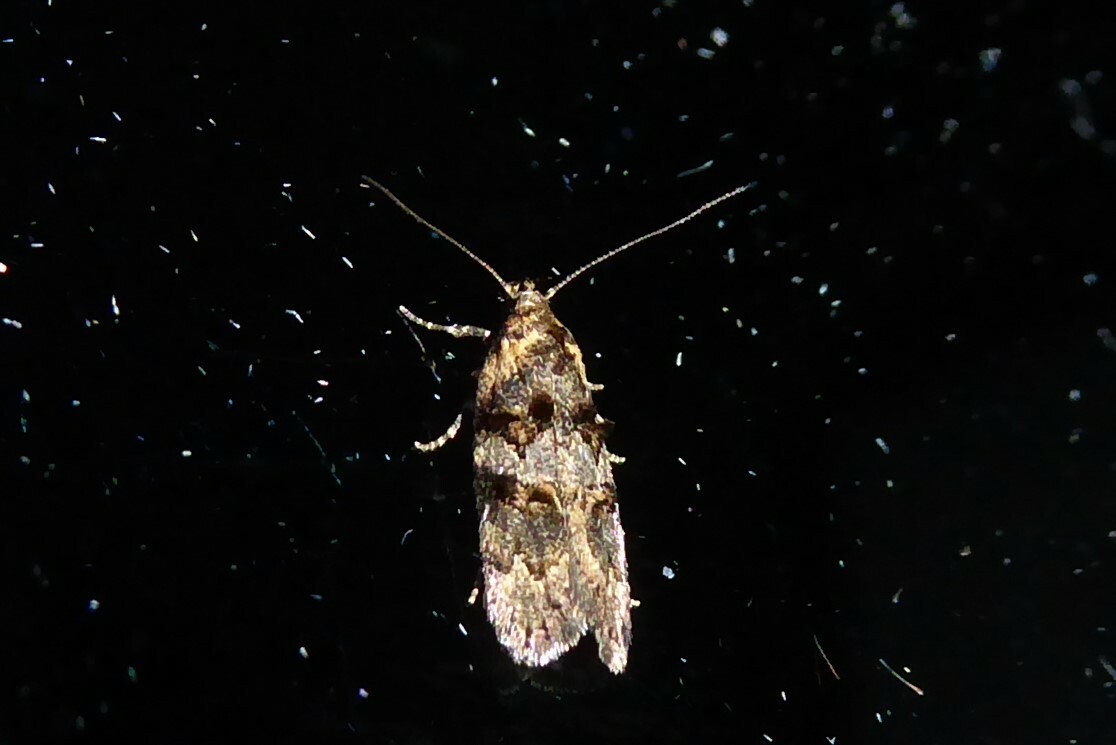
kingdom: Animalia
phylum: Arthropoda
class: Insecta
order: Lepidoptera
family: Oecophoridae
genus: Trachypepla
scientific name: Trachypepla anastrella
